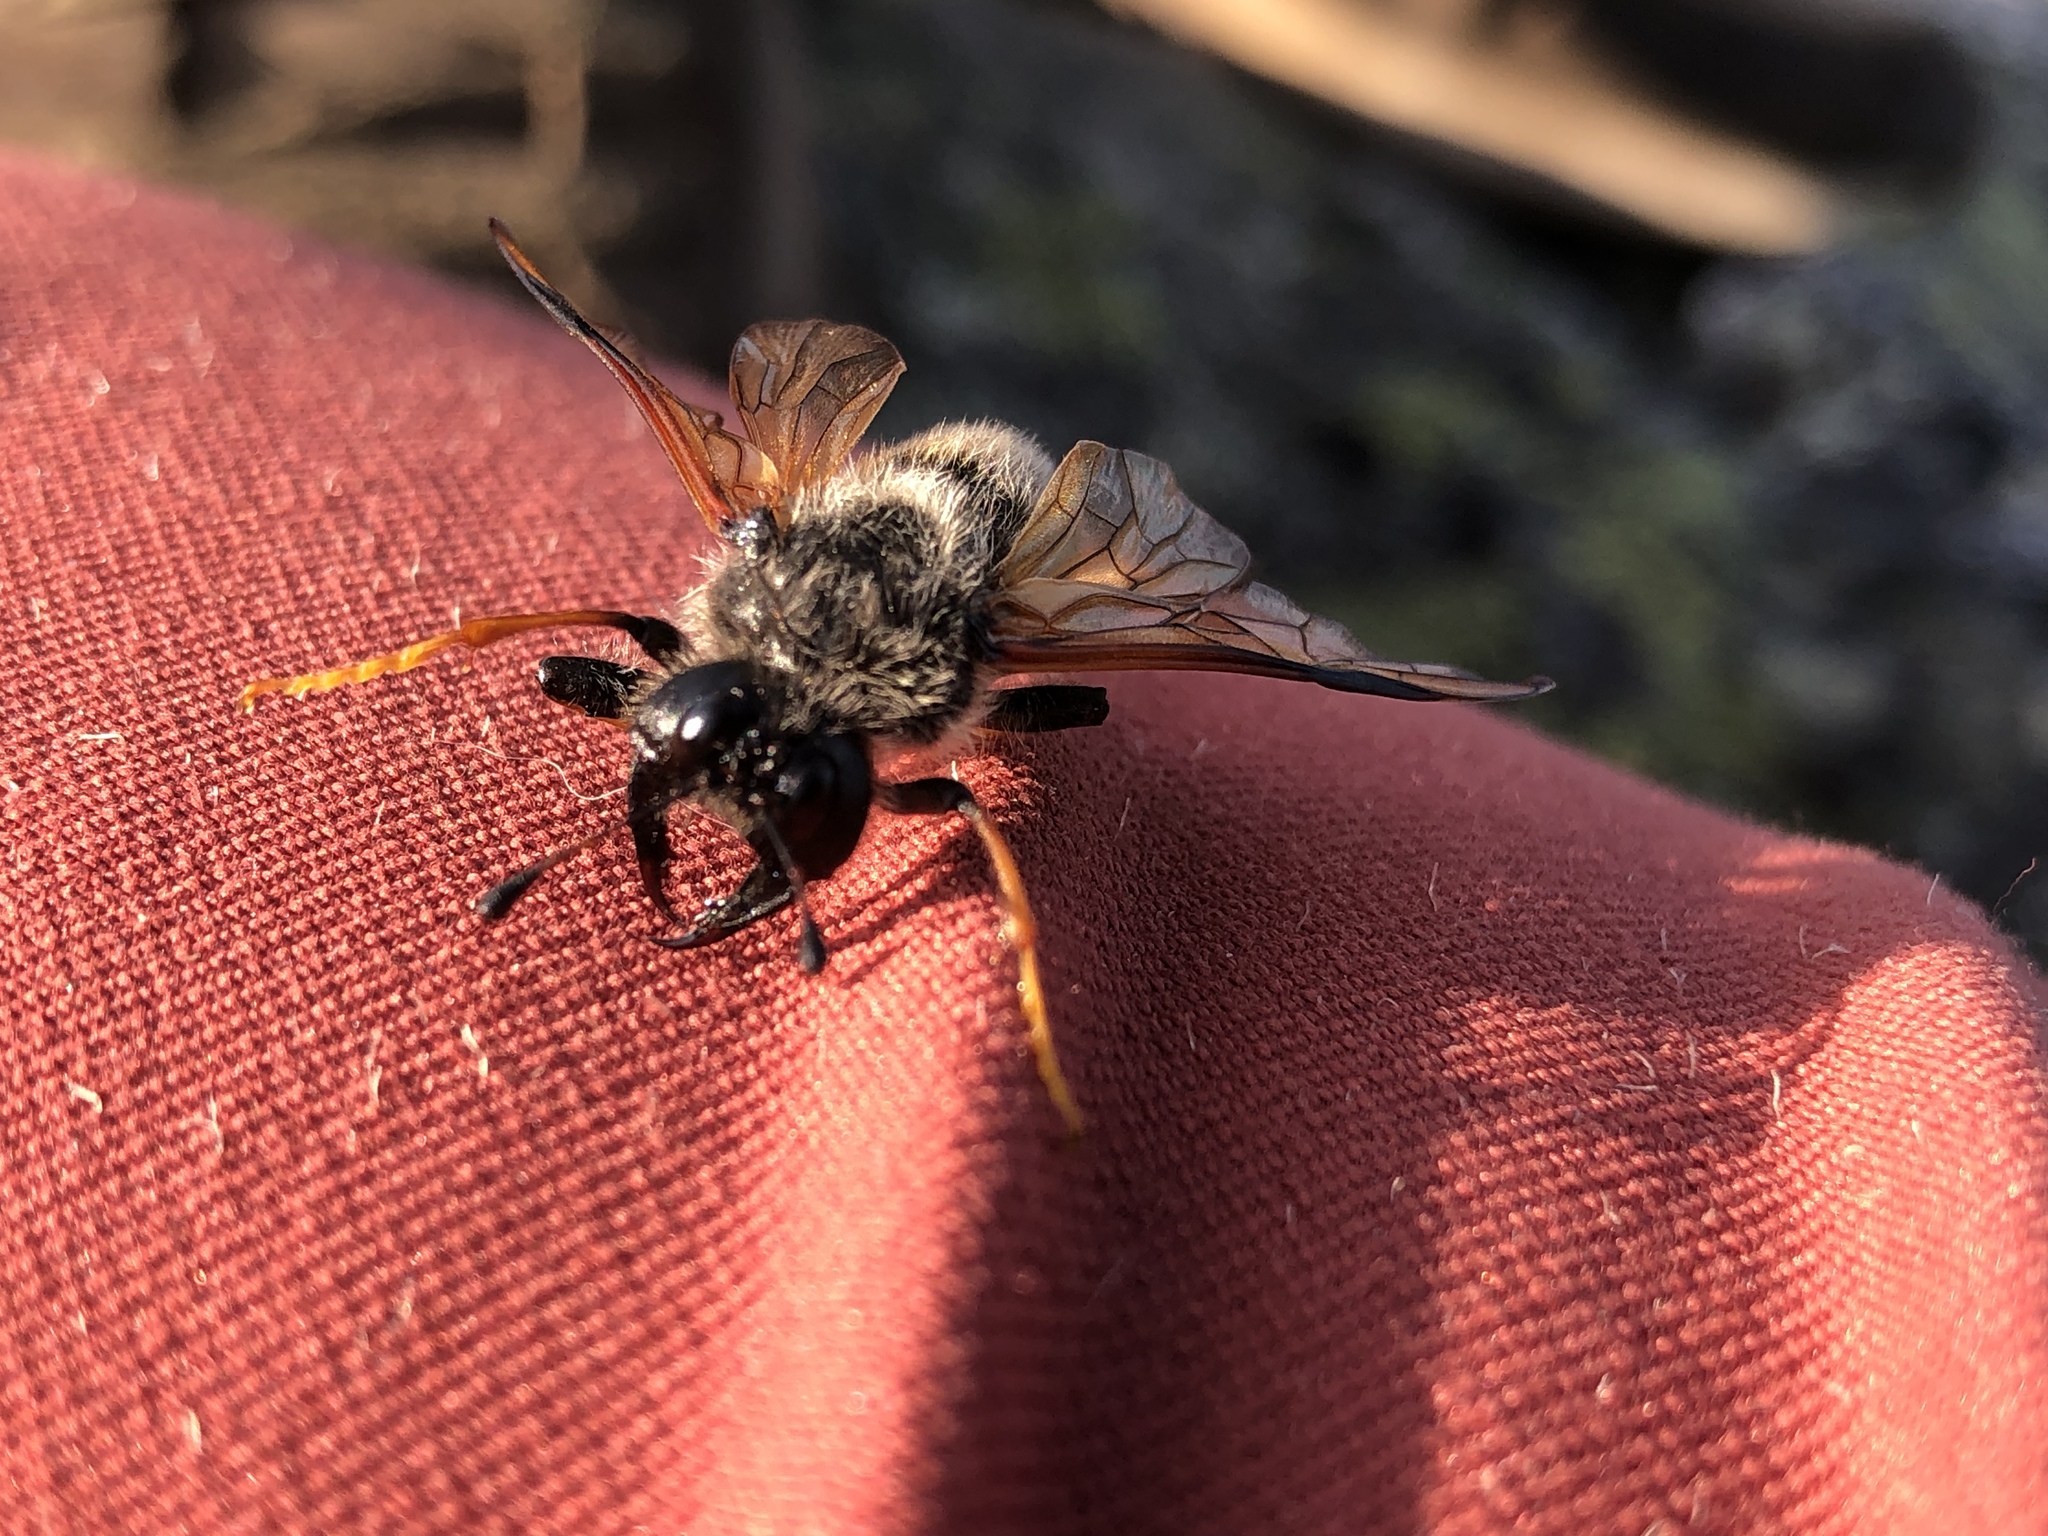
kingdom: Animalia
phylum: Arthropoda
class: Insecta
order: Hymenoptera
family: Cimbicidae
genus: Trichiosoma
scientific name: Trichiosoma triangulum
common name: Giant birch sawfly
